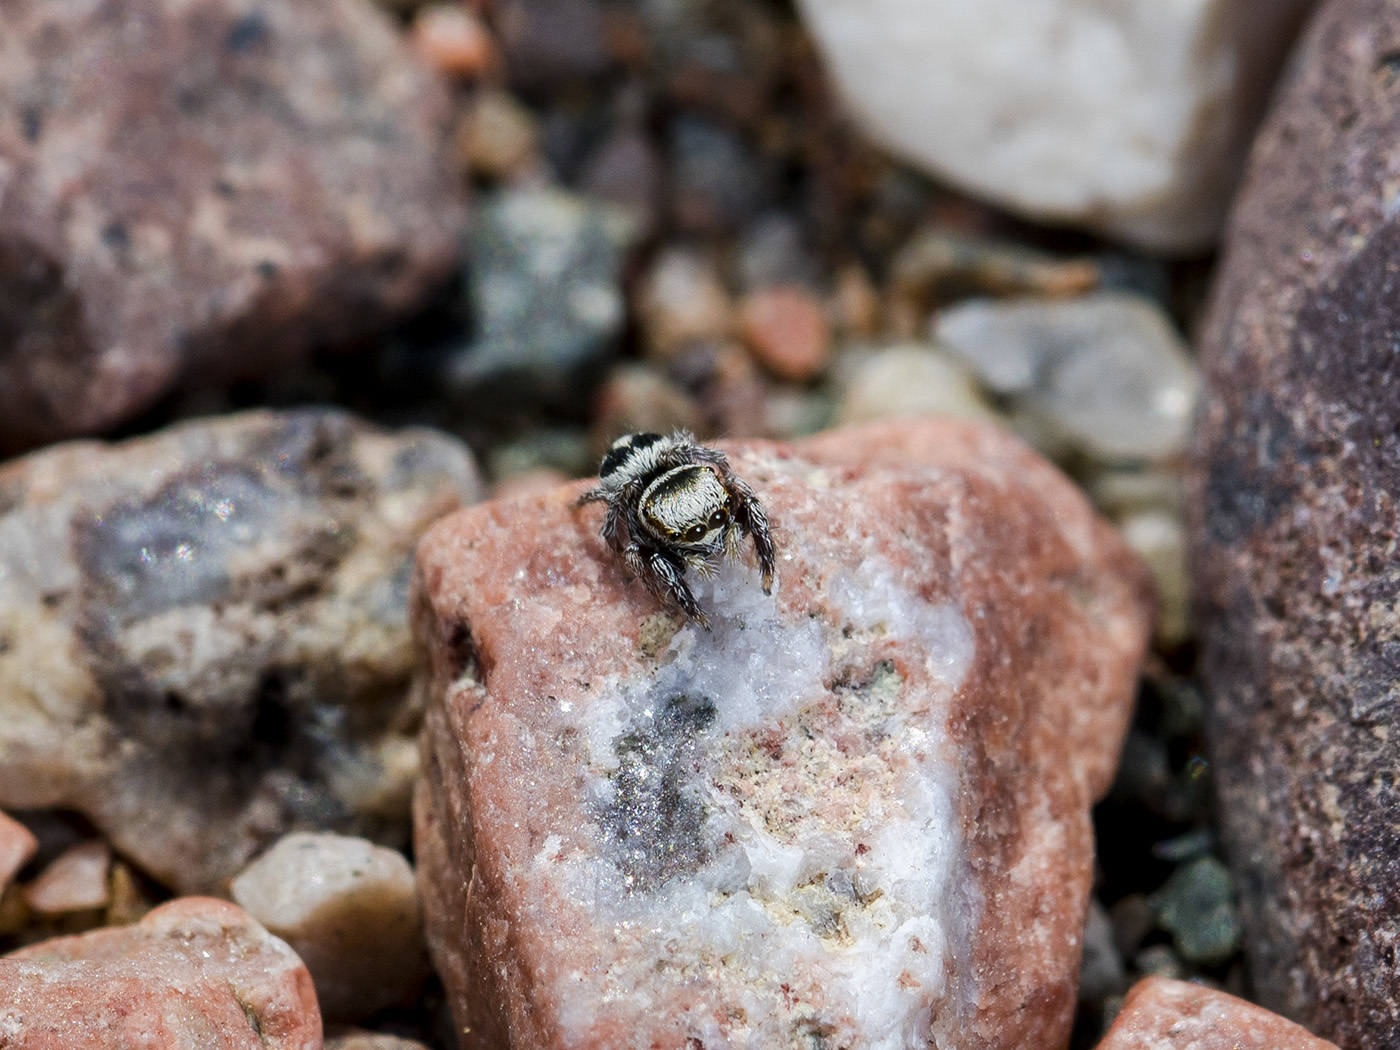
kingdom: Animalia
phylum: Arthropoda
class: Arachnida
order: Araneae
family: Salticidae
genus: Pellenes
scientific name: Pellenes geniculatus
